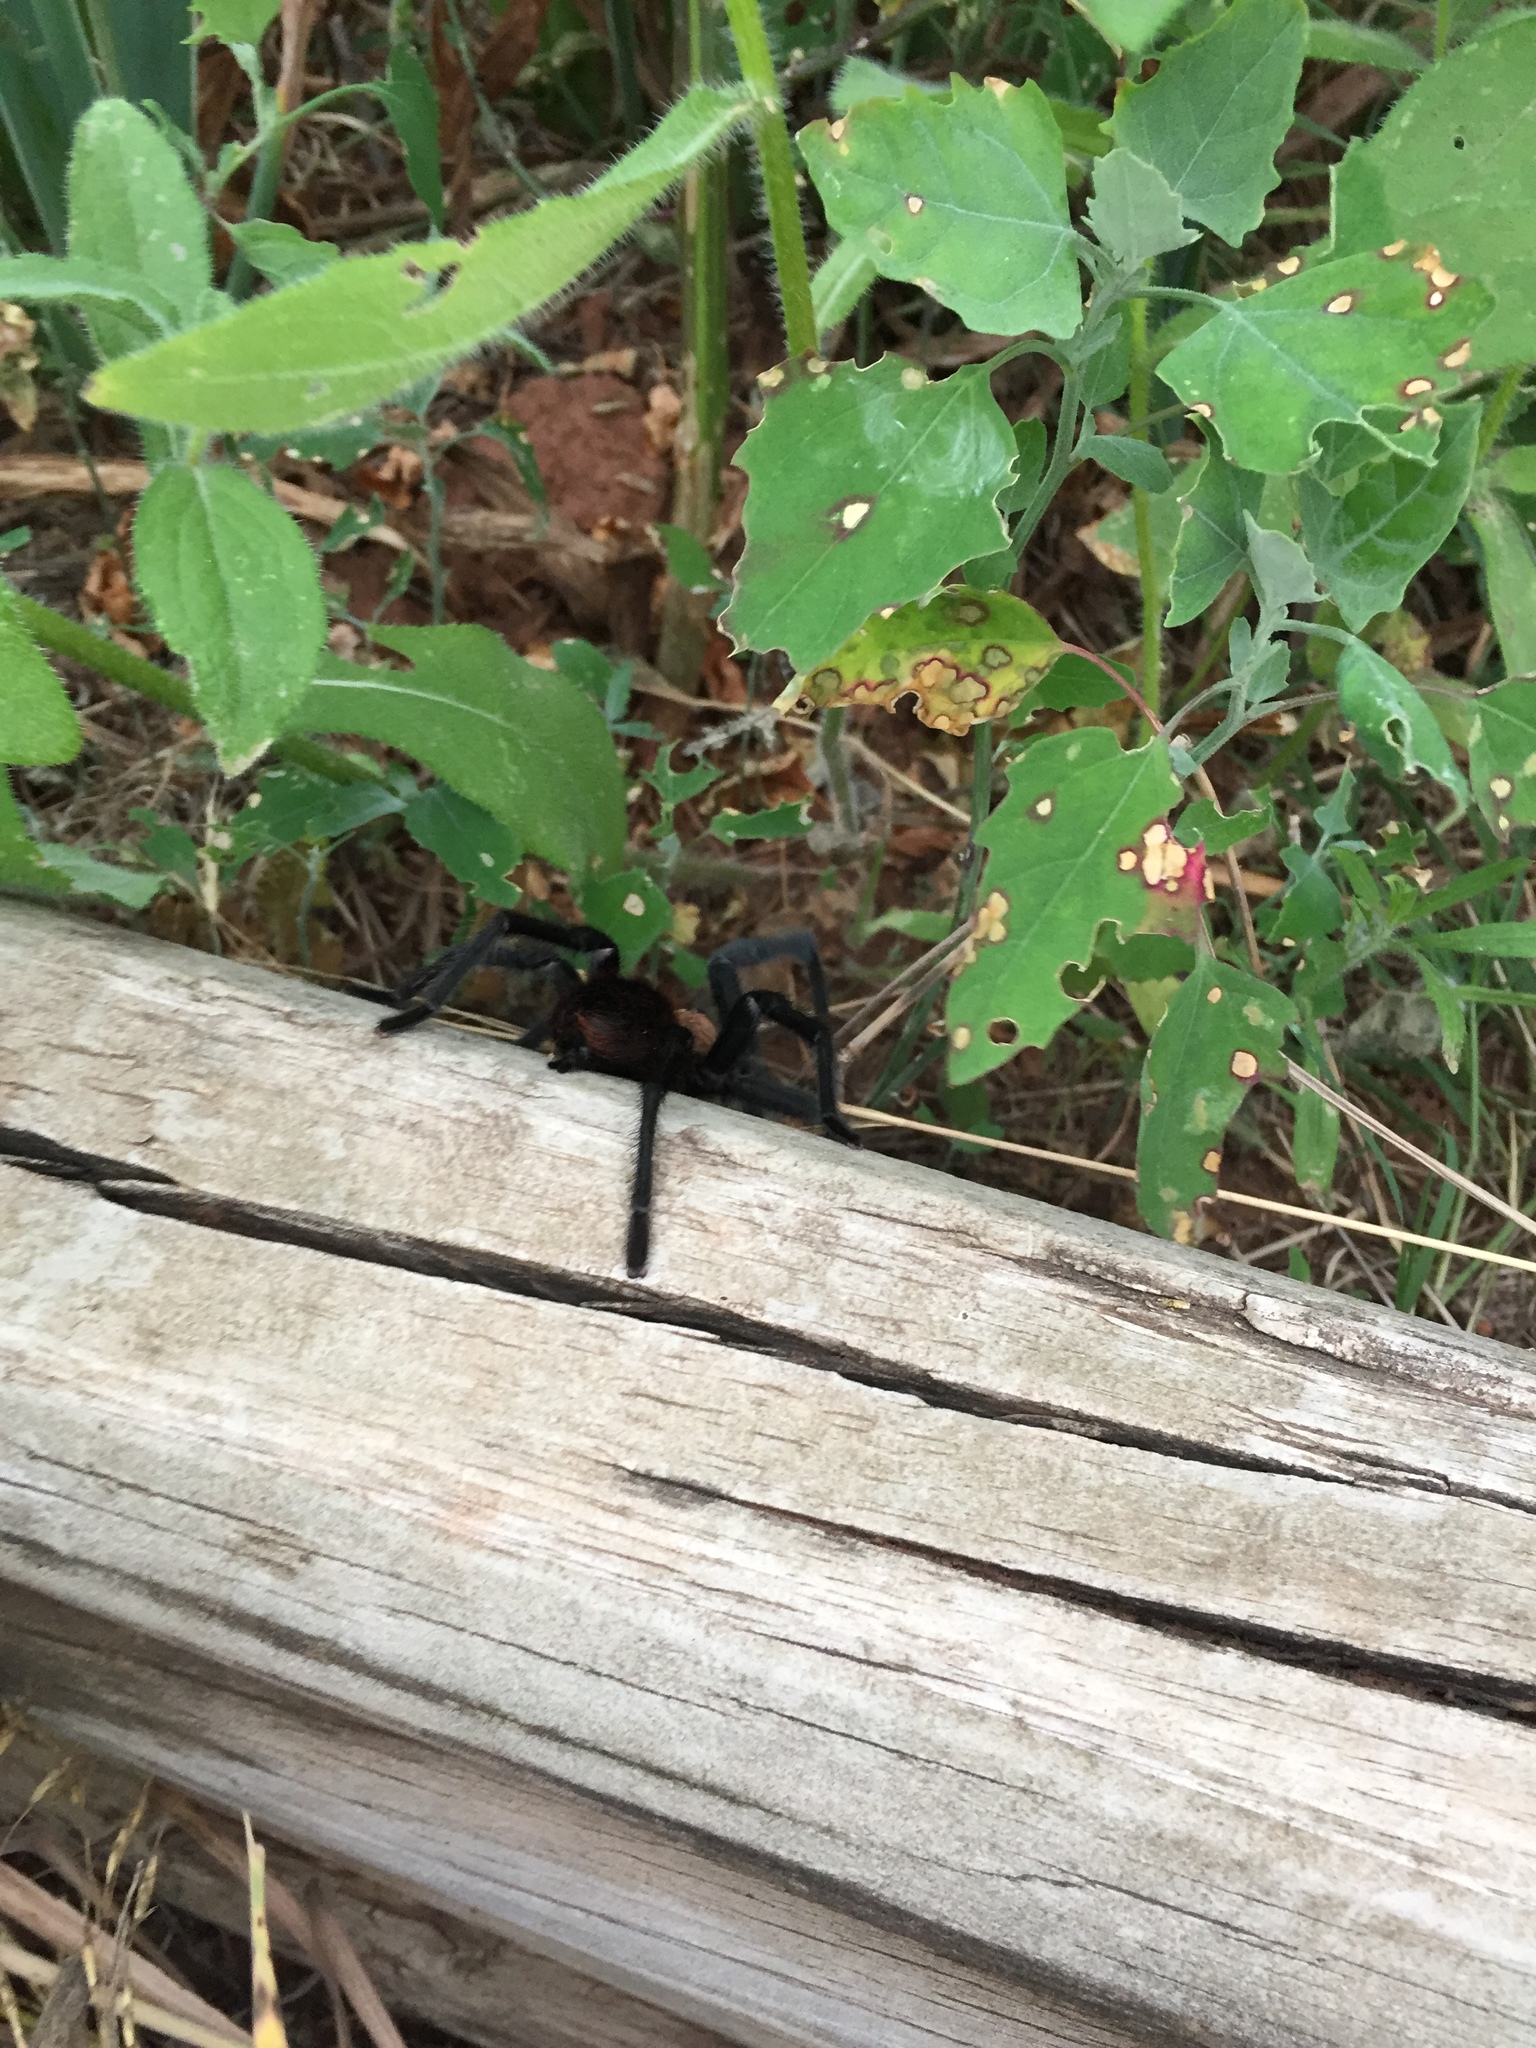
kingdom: Animalia
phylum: Arthropoda
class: Arachnida
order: Araneae
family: Theraphosidae
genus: Aphonopelma
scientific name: Aphonopelma hentzi
